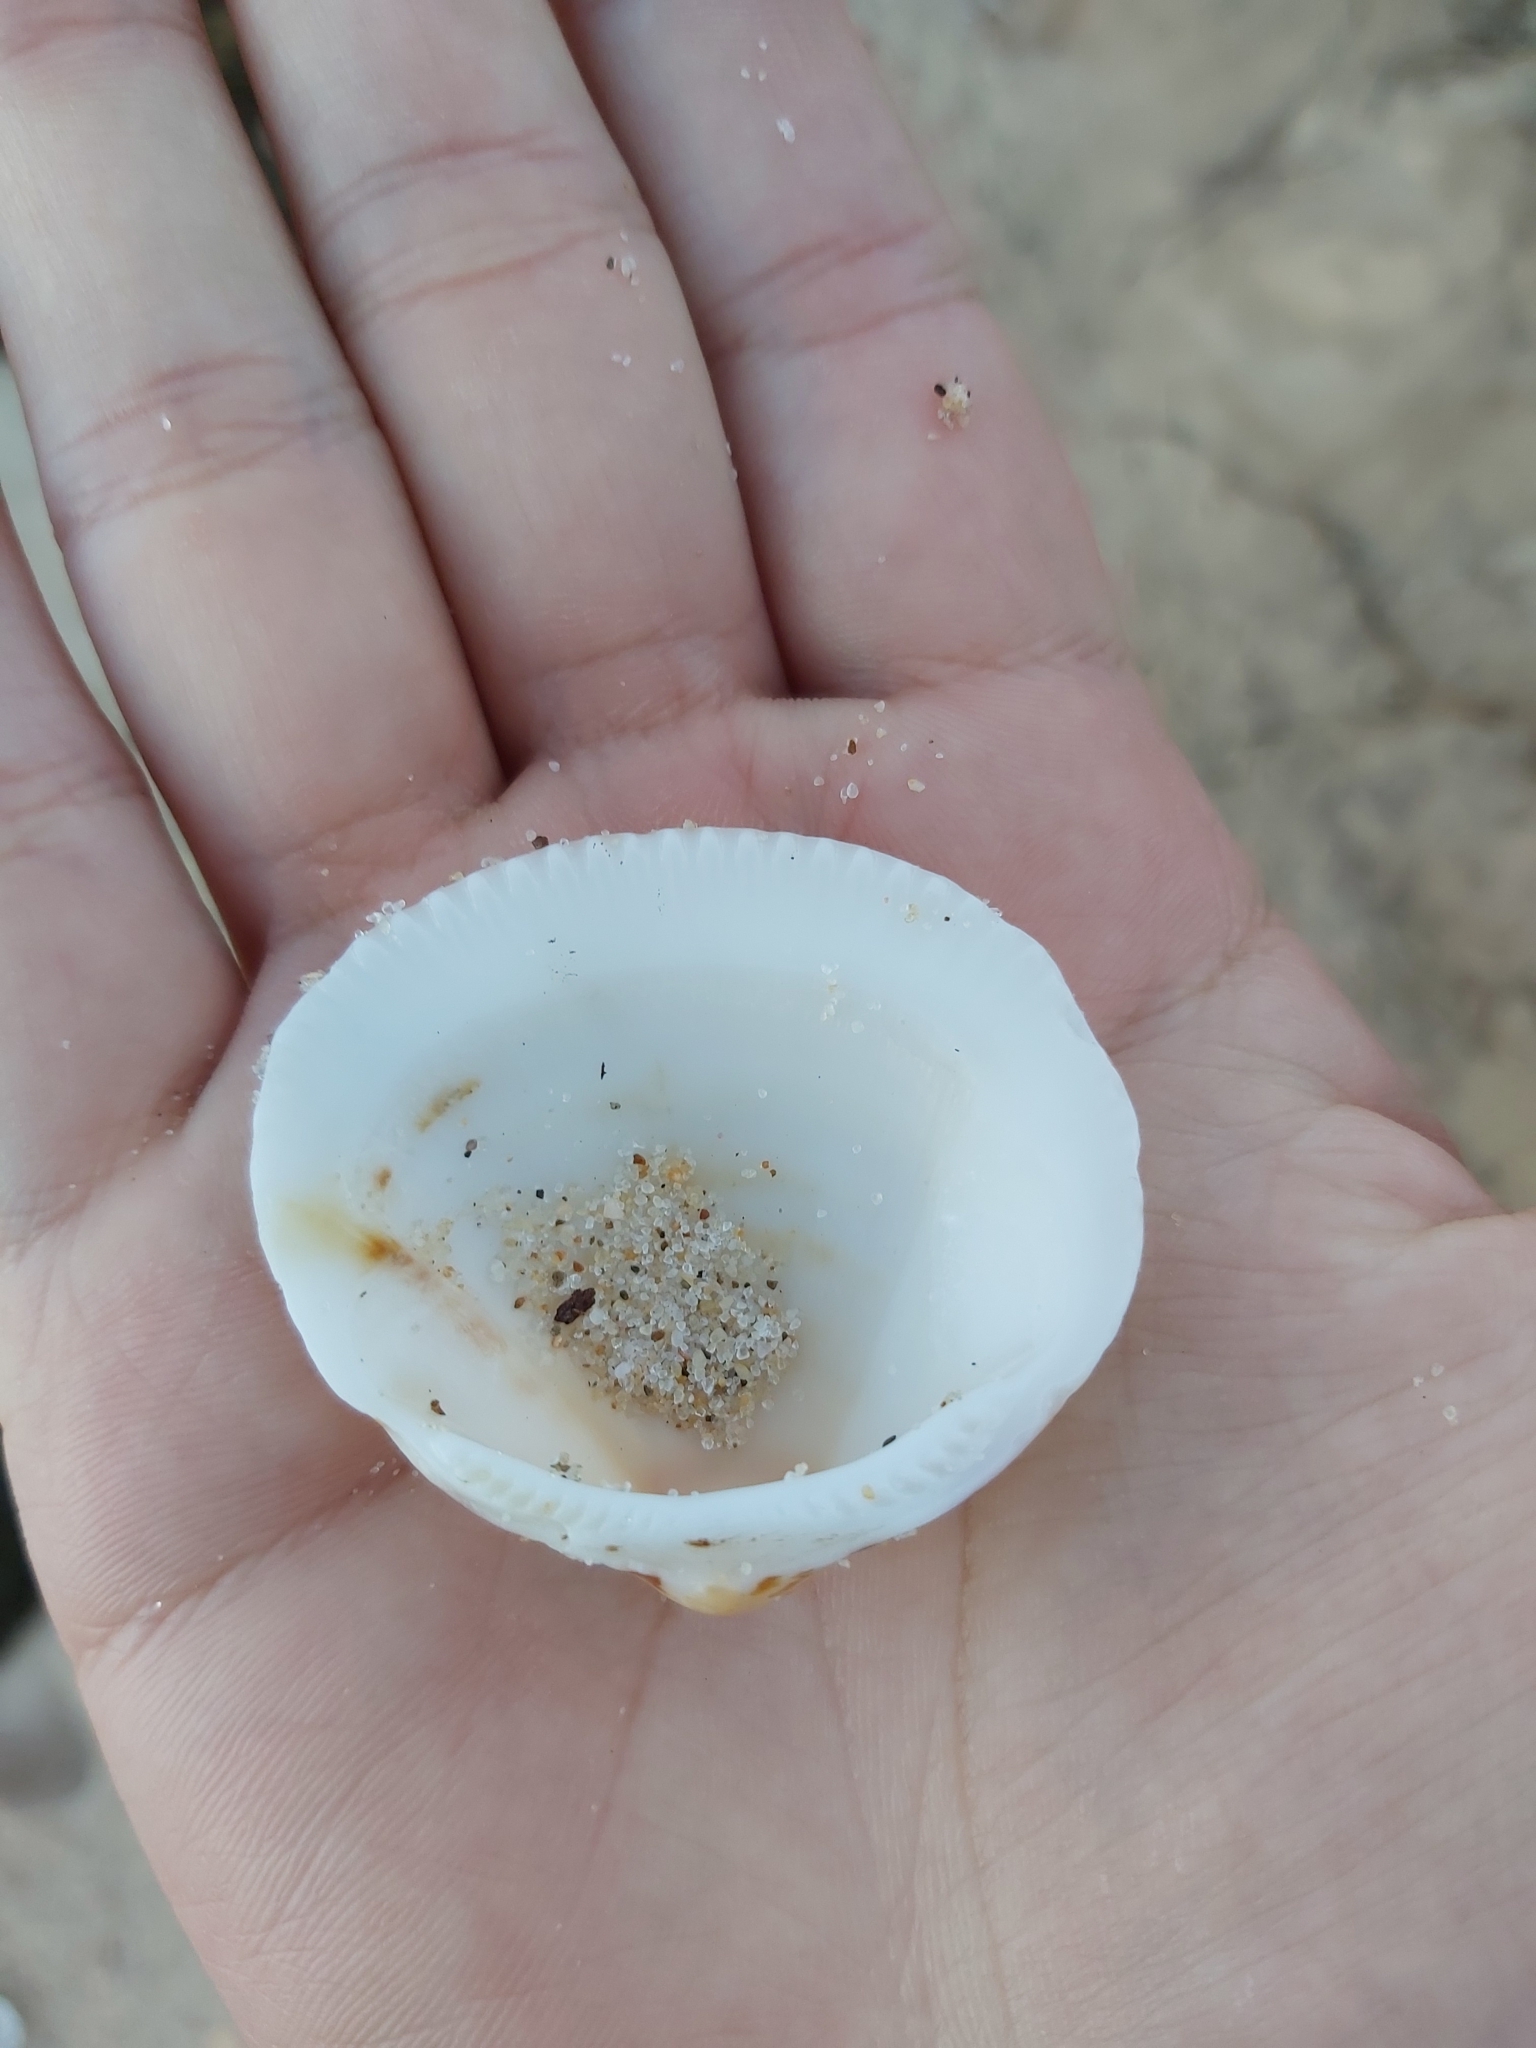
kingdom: Animalia
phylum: Mollusca
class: Bivalvia
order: Arcida
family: Glycymerididae
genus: Glycymeris
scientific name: Glycymeris grayana
